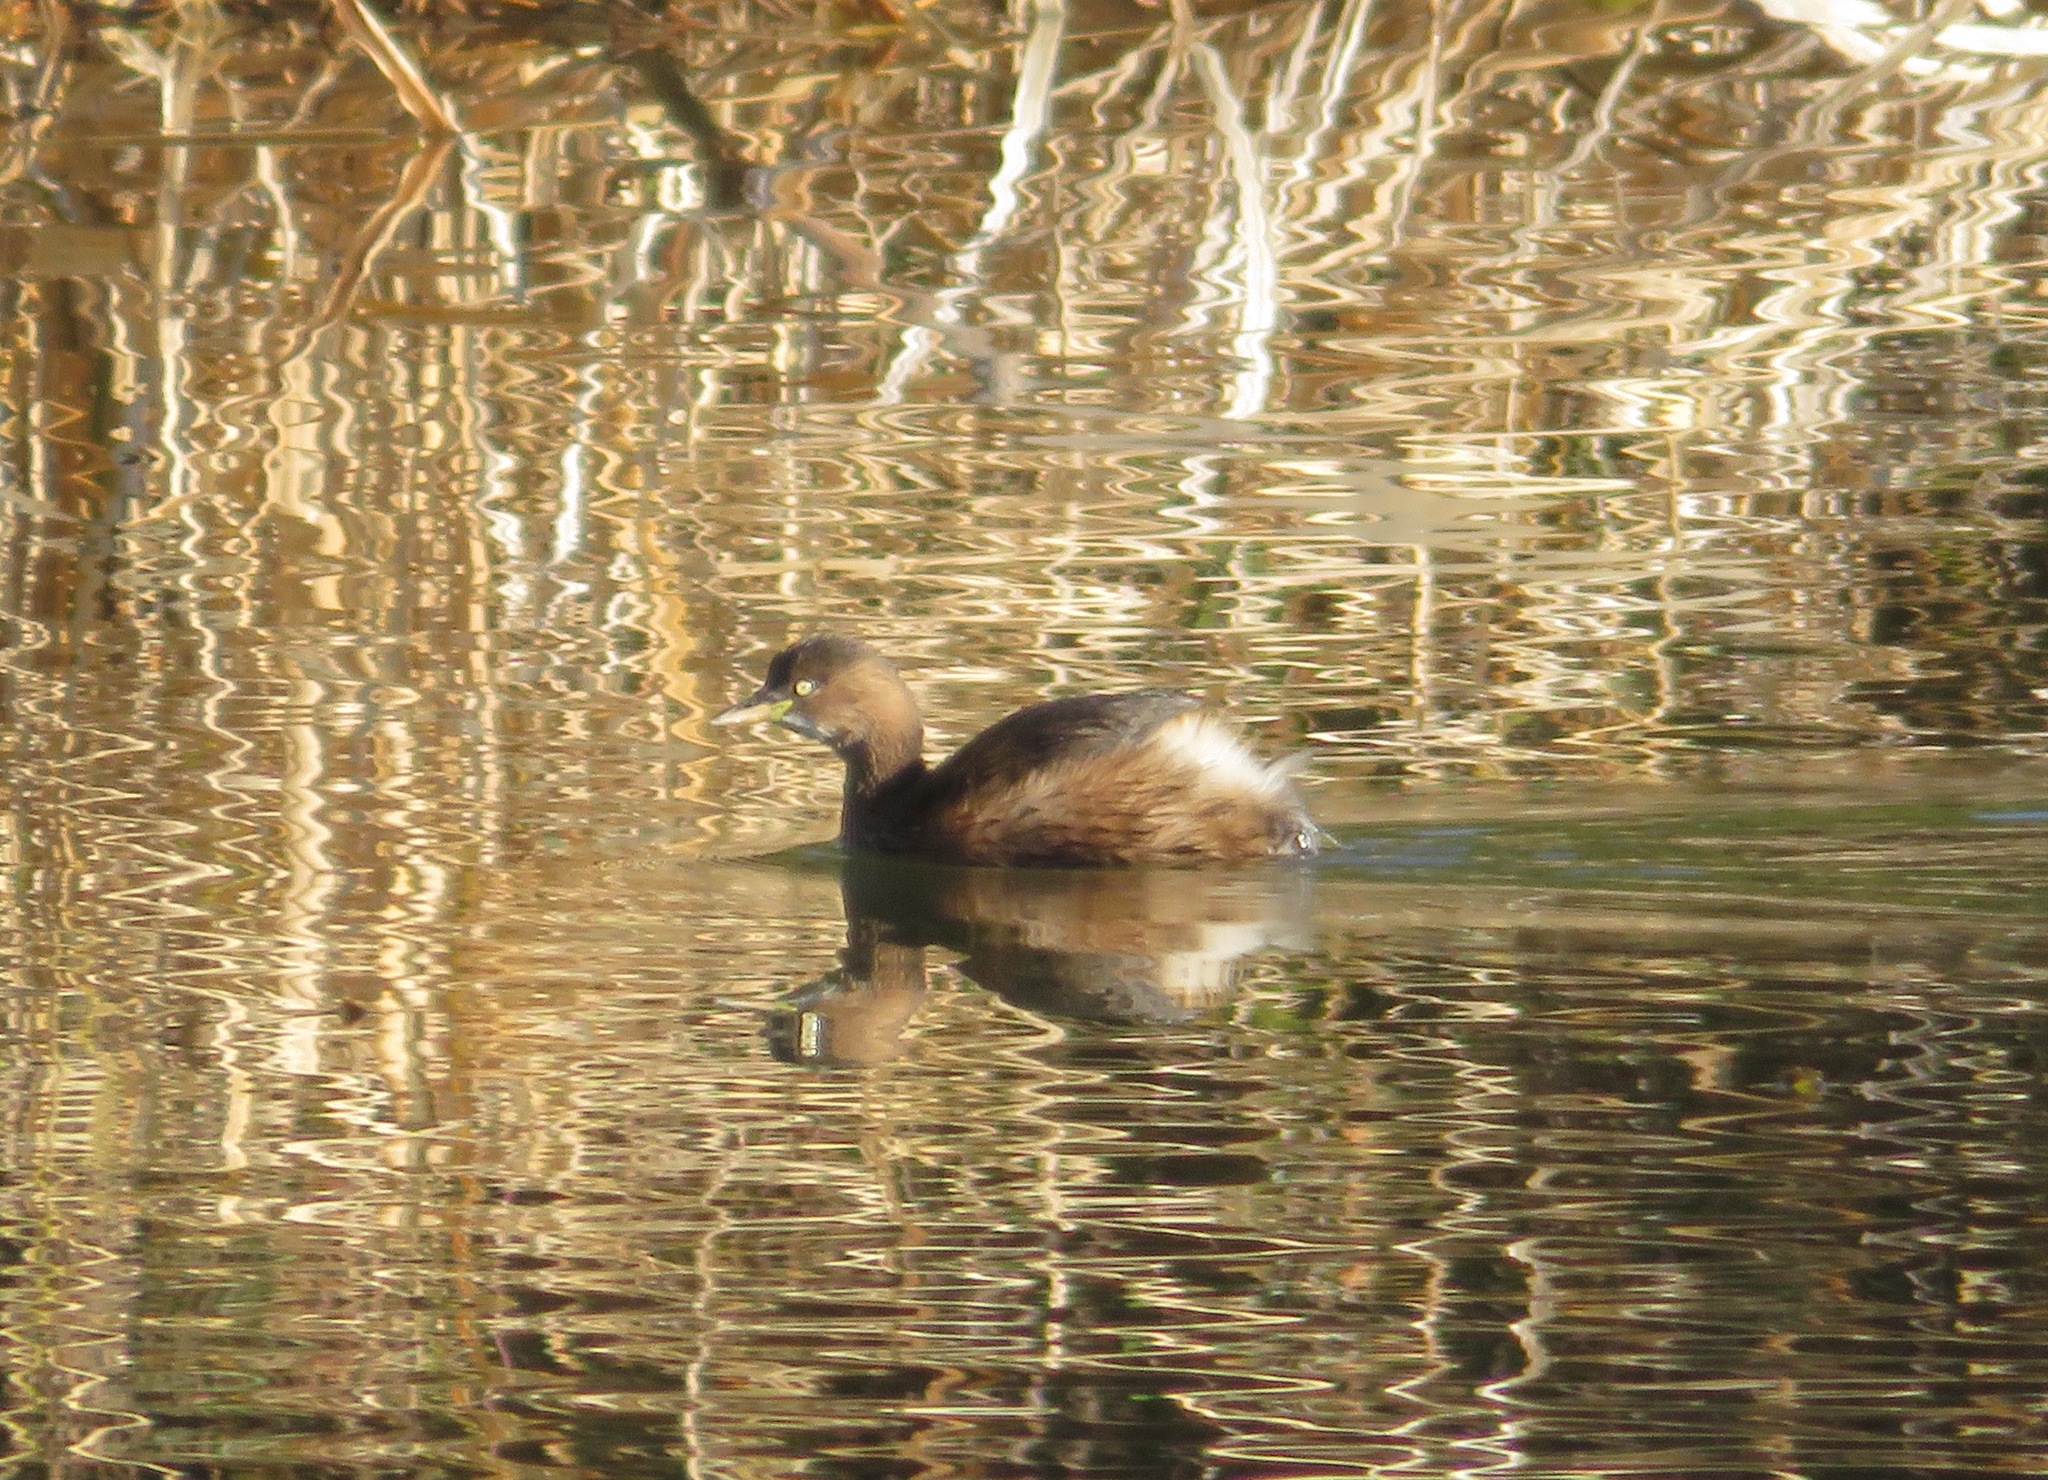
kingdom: Animalia
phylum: Chordata
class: Aves
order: Podicipediformes
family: Podicipedidae
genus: Tachybaptus
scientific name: Tachybaptus ruficollis
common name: Little grebe
